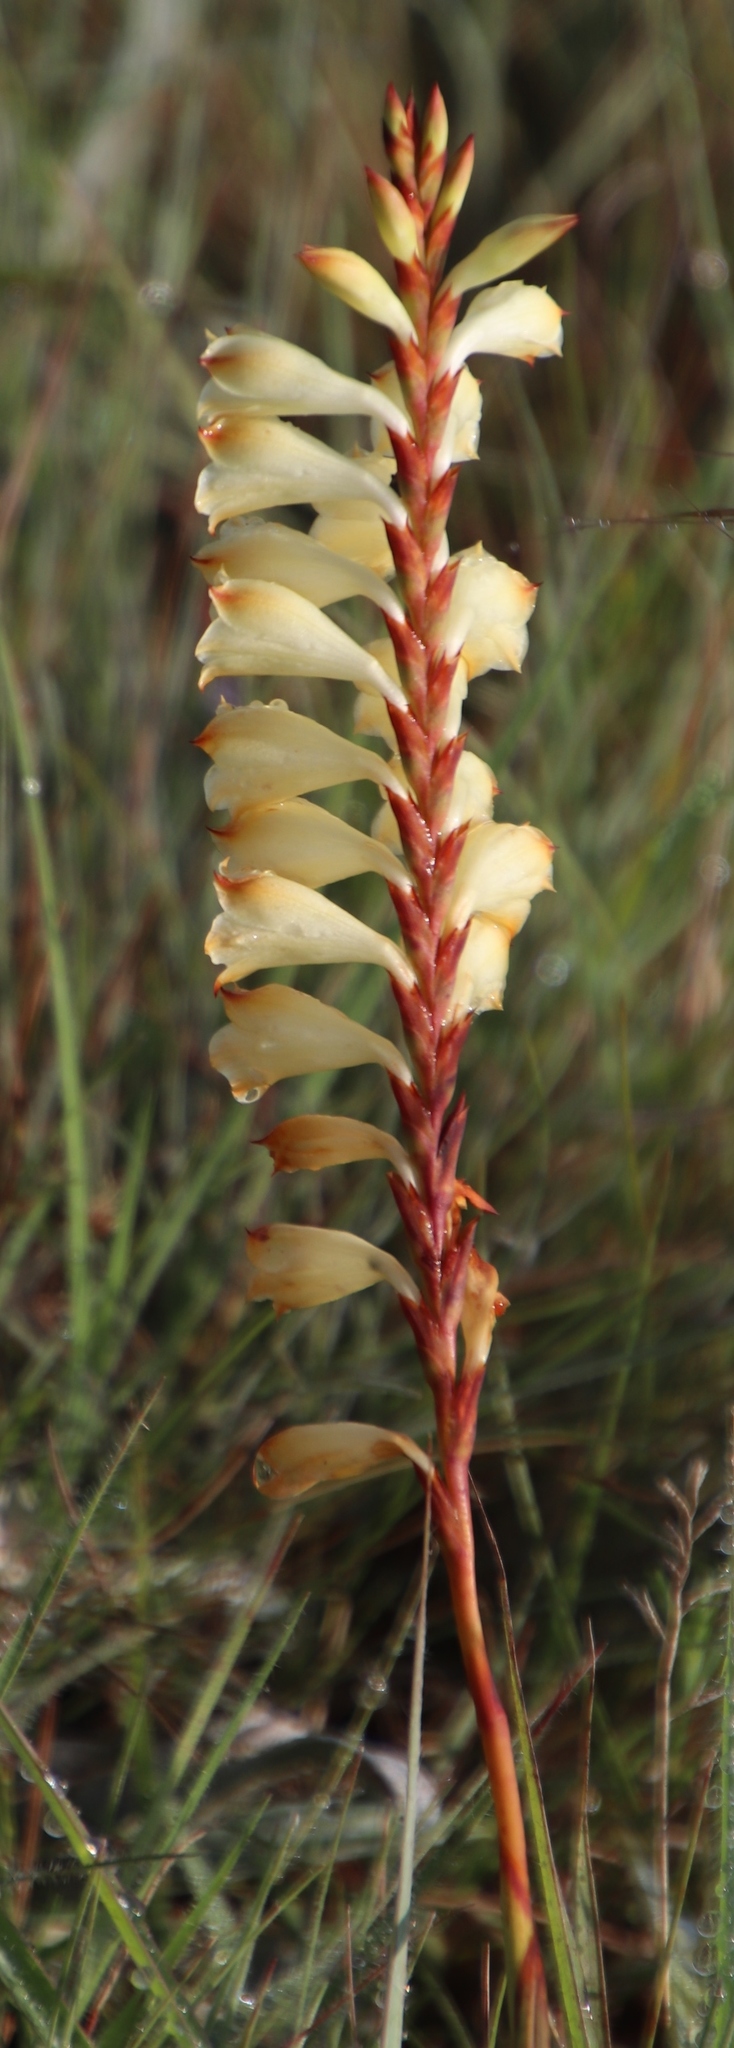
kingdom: Plantae
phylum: Tracheophyta
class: Liliopsida
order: Asparagales
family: Iridaceae
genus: Watsonia
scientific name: Watsonia watsonioides
